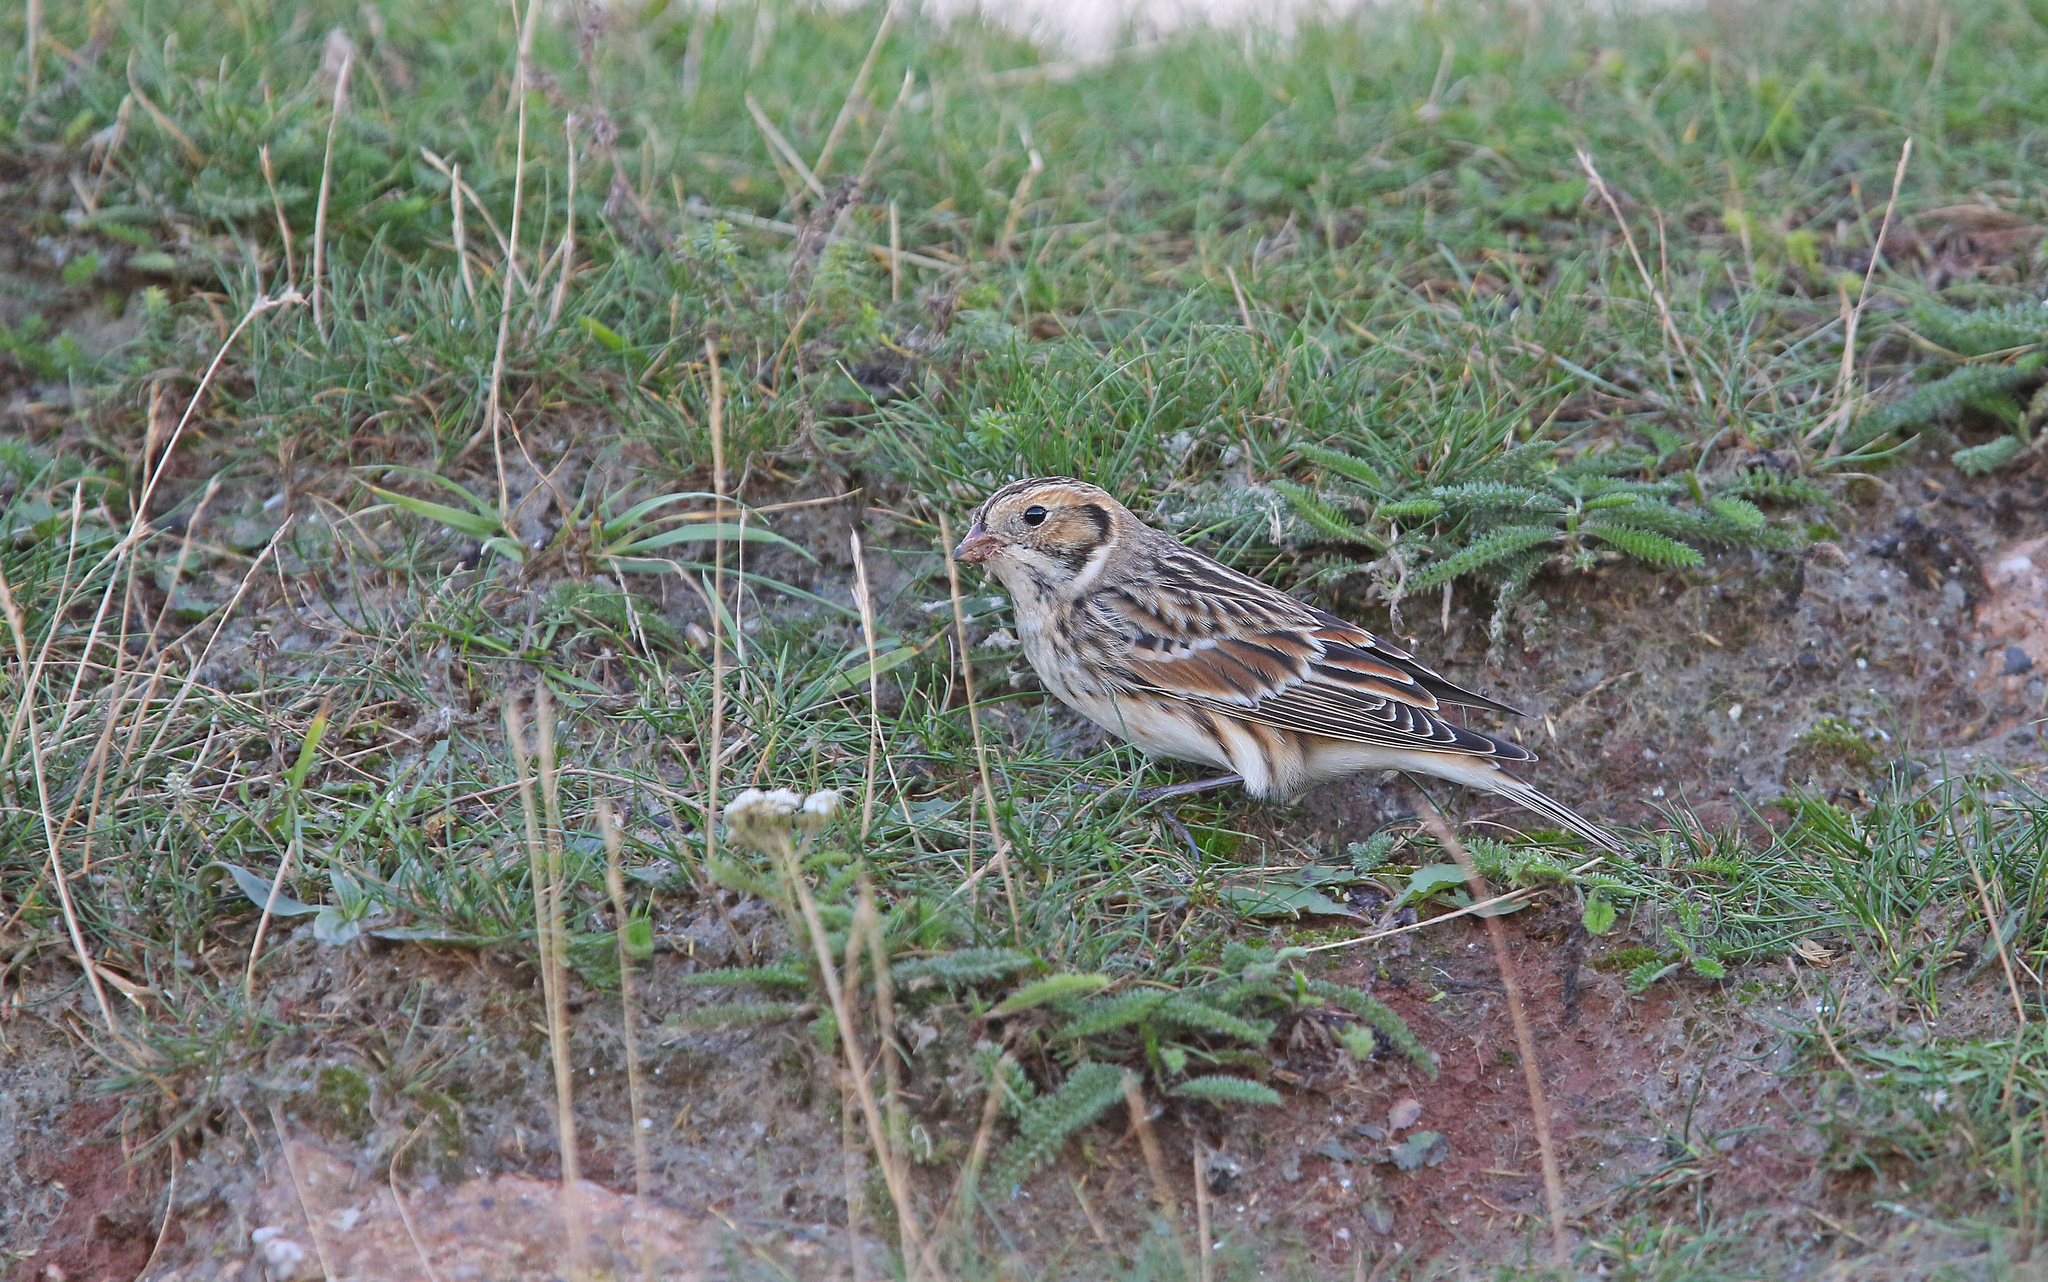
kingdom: Animalia
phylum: Chordata
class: Aves
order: Passeriformes
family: Calcariidae
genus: Calcarius
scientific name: Calcarius lapponicus
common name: Lapland longspur
